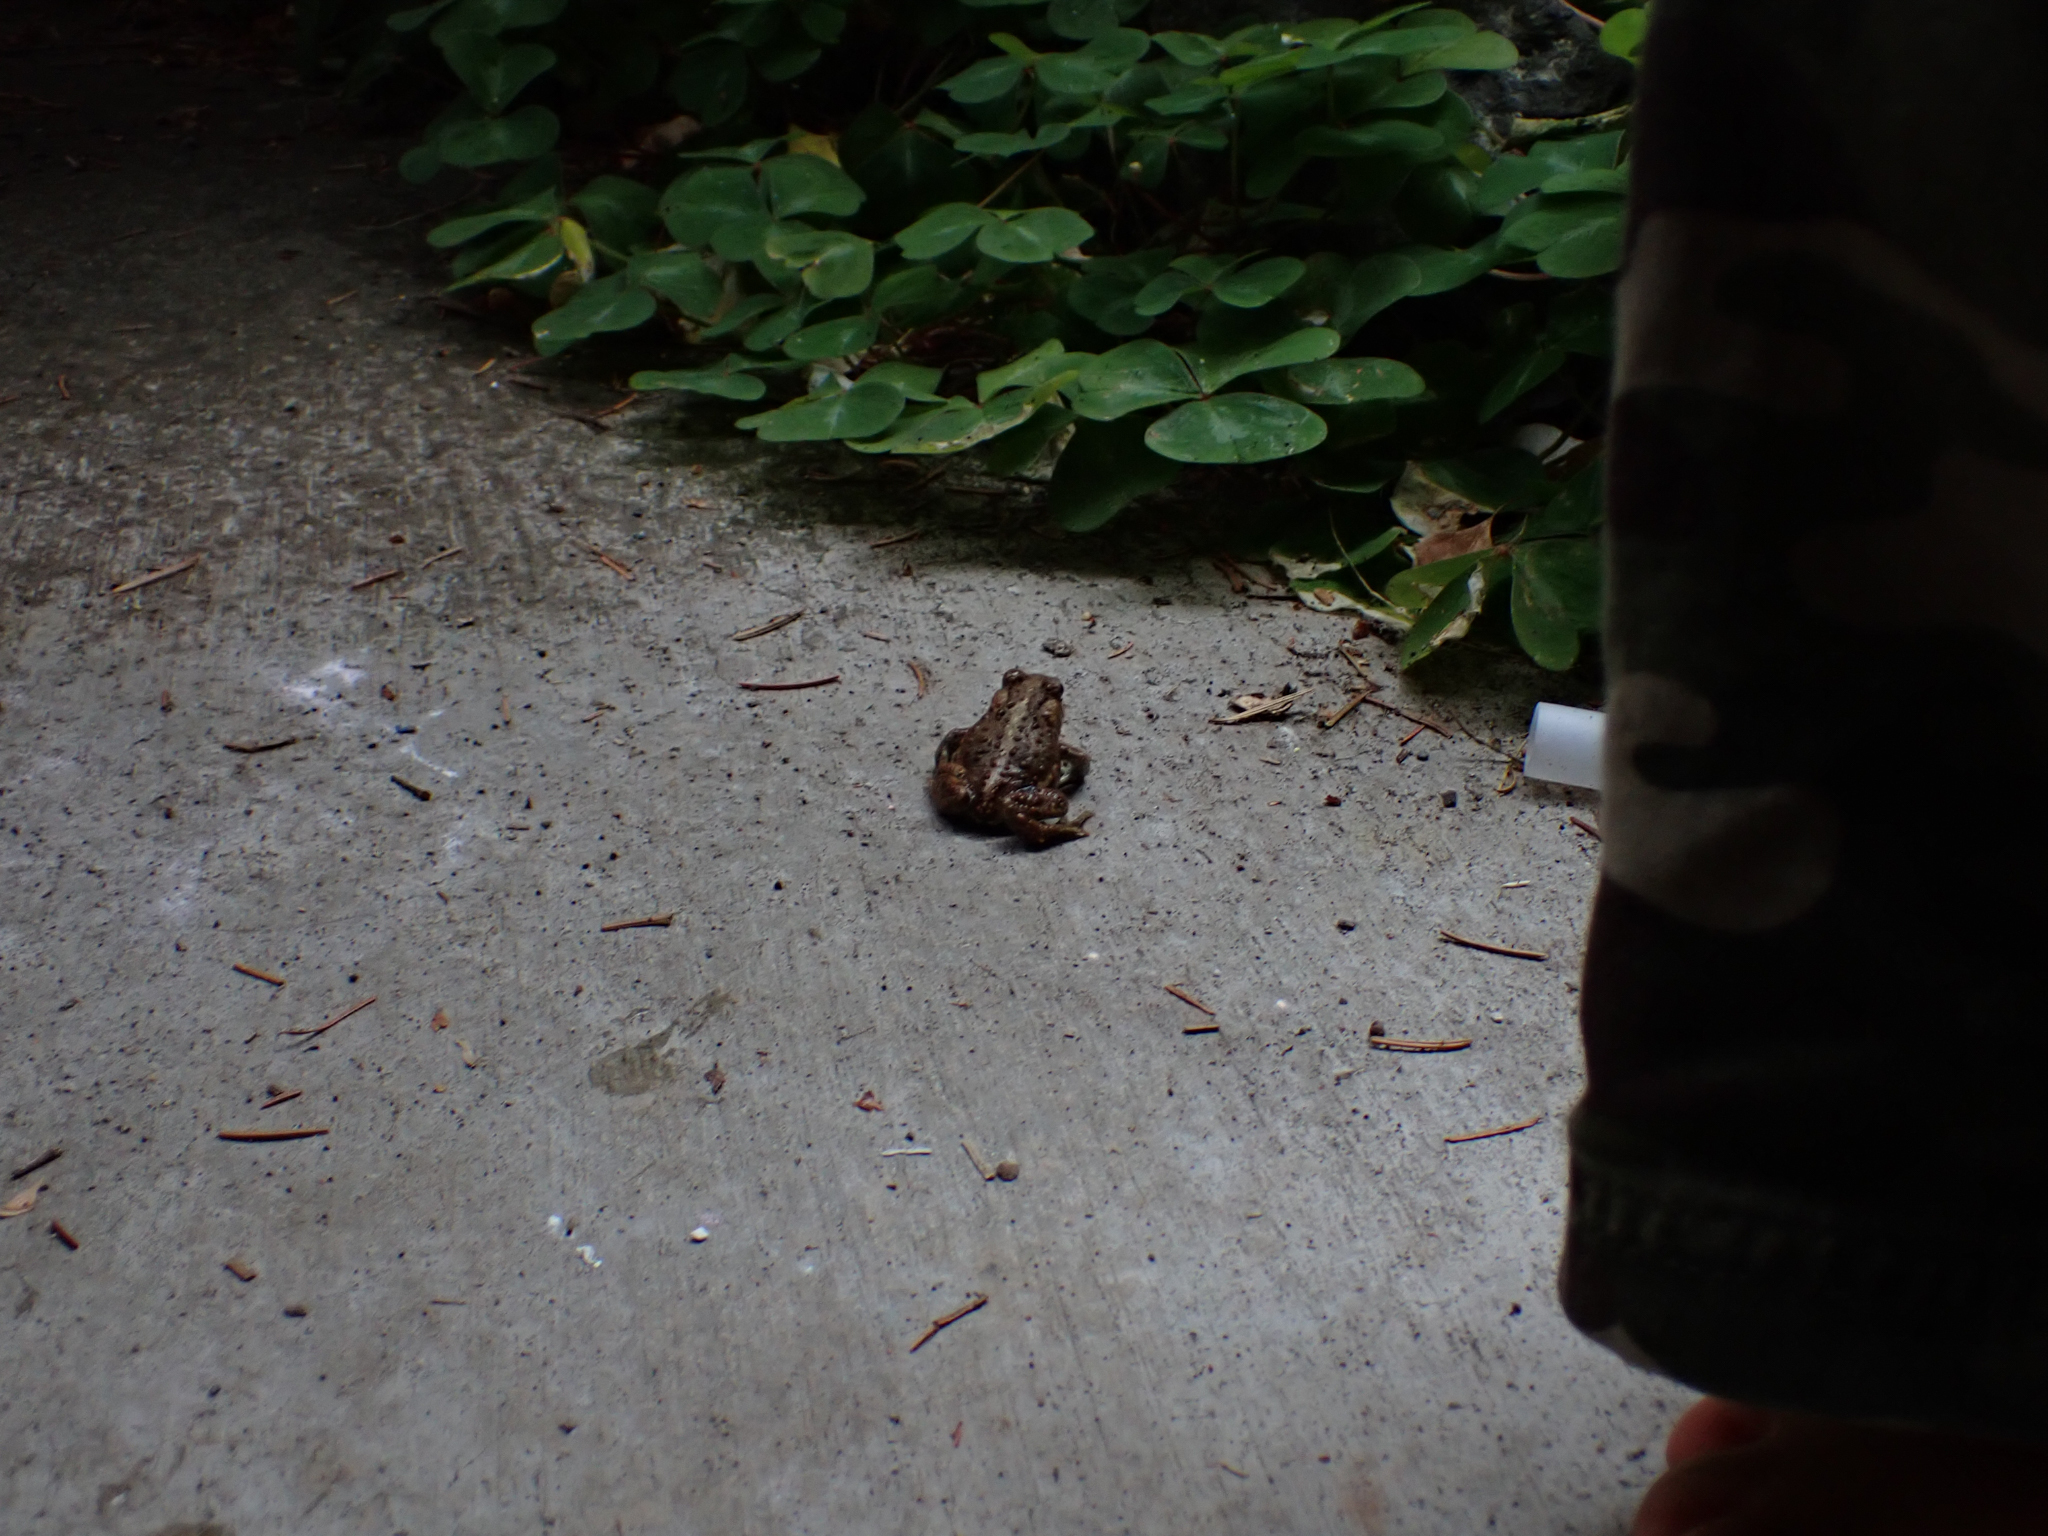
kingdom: Animalia
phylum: Chordata
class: Amphibia
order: Anura
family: Bufonidae
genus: Anaxyrus
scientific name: Anaxyrus boreas
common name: Western toad
